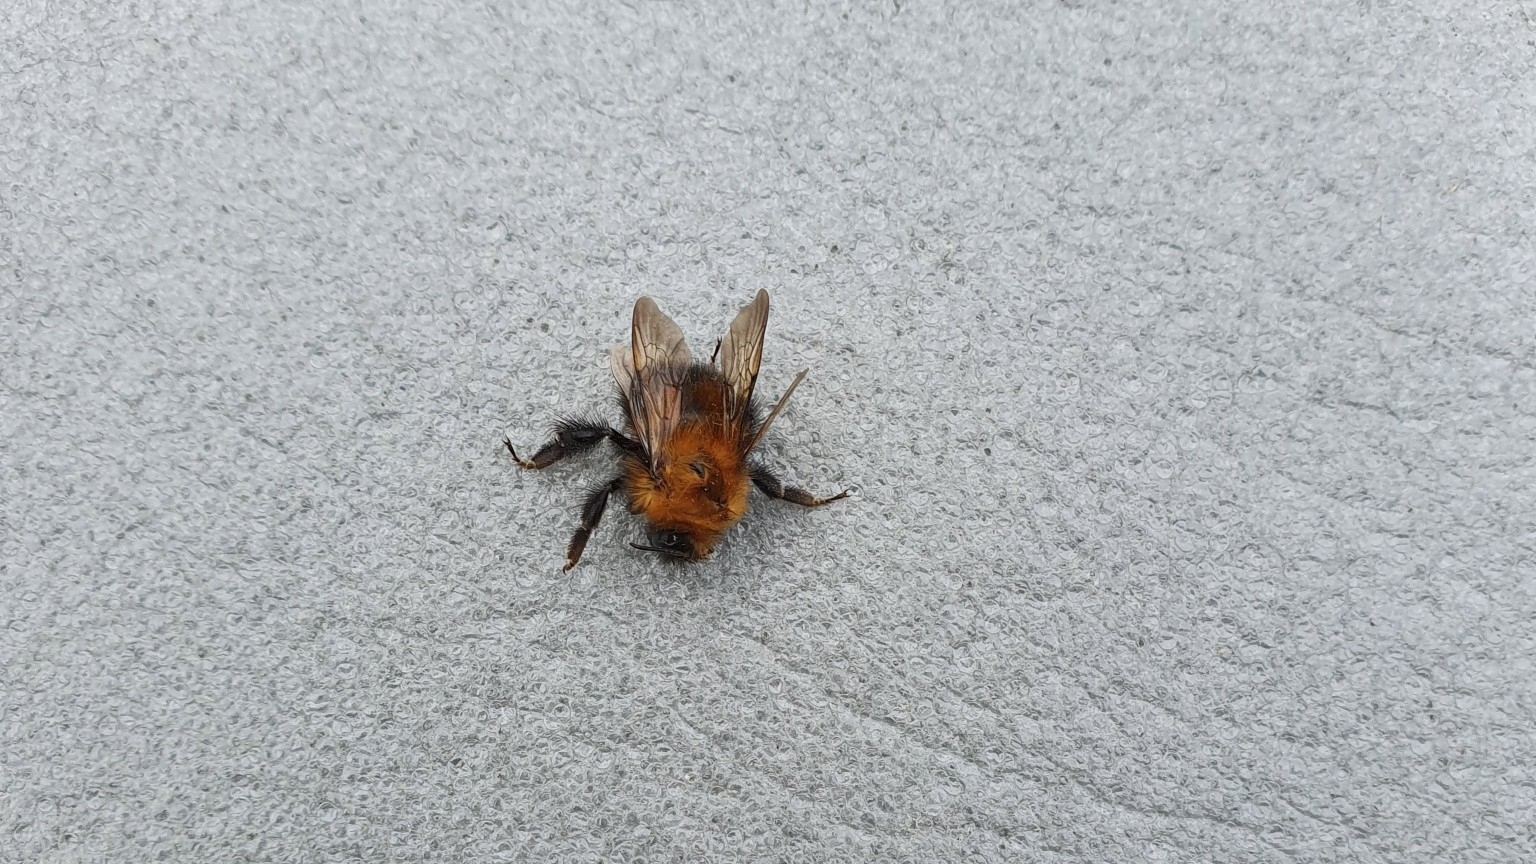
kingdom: Animalia
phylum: Arthropoda
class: Insecta
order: Hymenoptera
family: Apidae
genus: Bombus
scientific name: Bombus hypnorum
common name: New garden bumblebee
